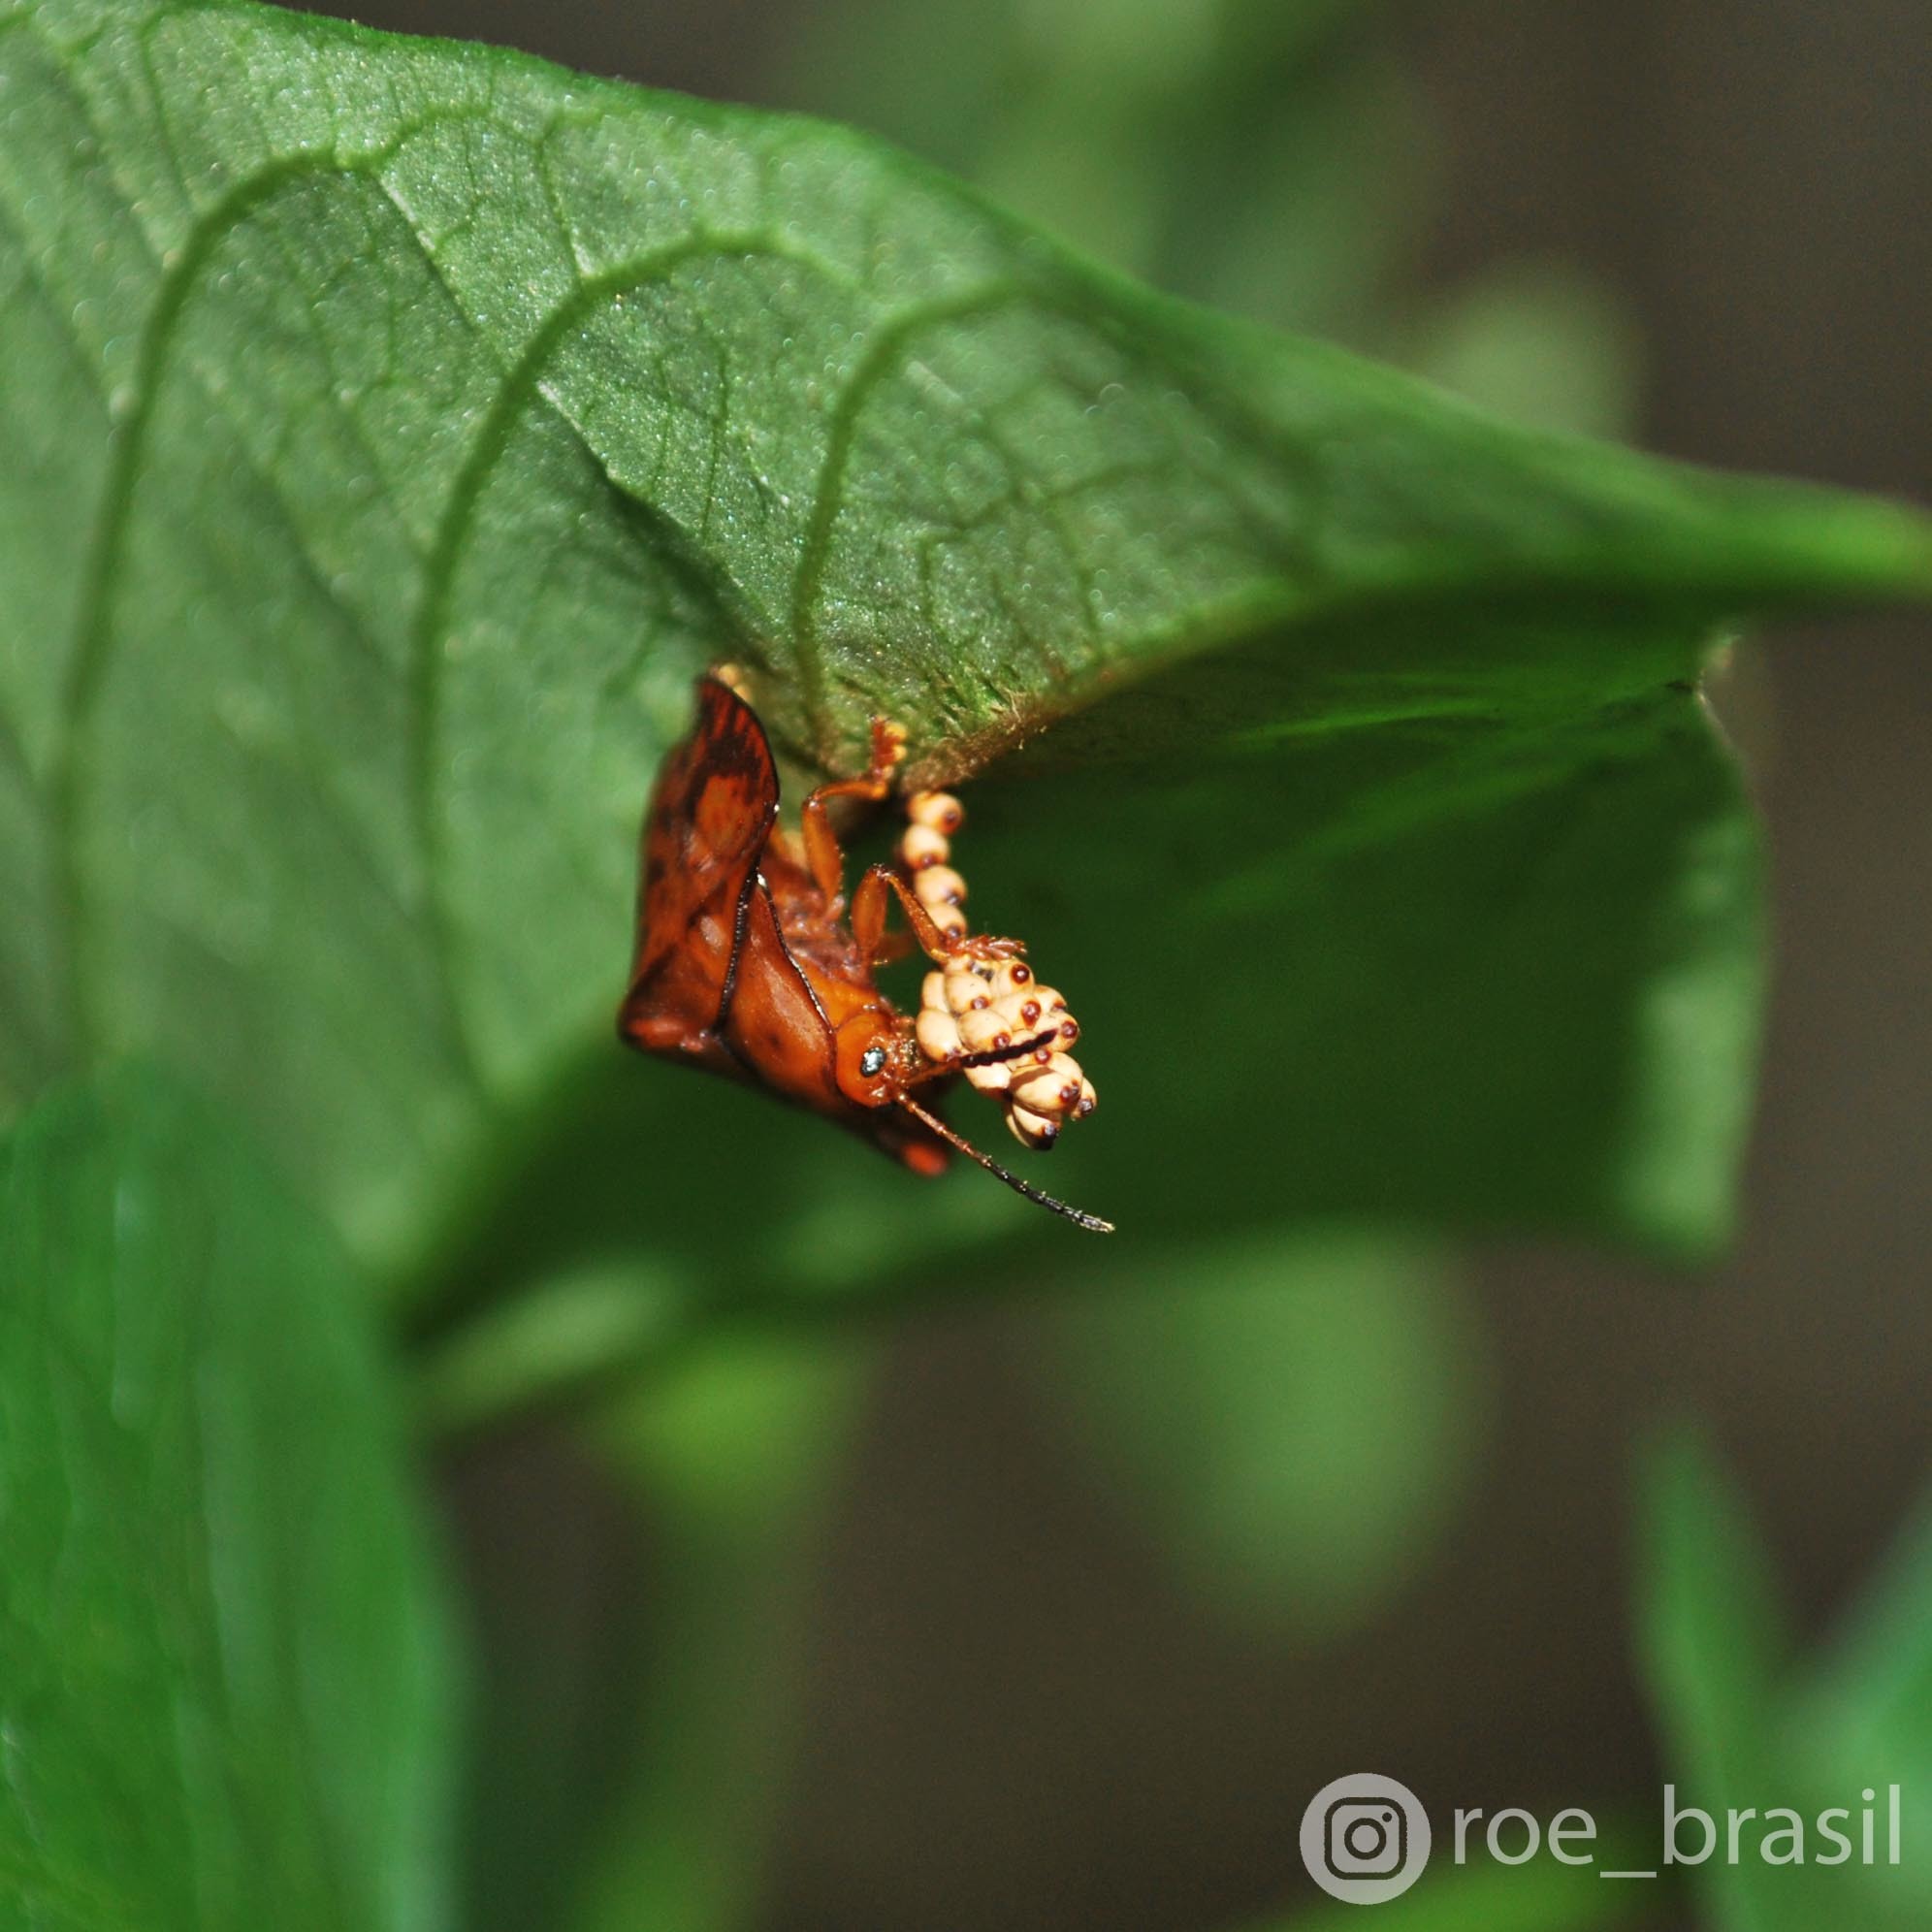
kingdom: Animalia
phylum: Arthropoda
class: Insecta
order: Coleoptera
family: Chrysomelidae
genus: Acromis
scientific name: Acromis spinifex
